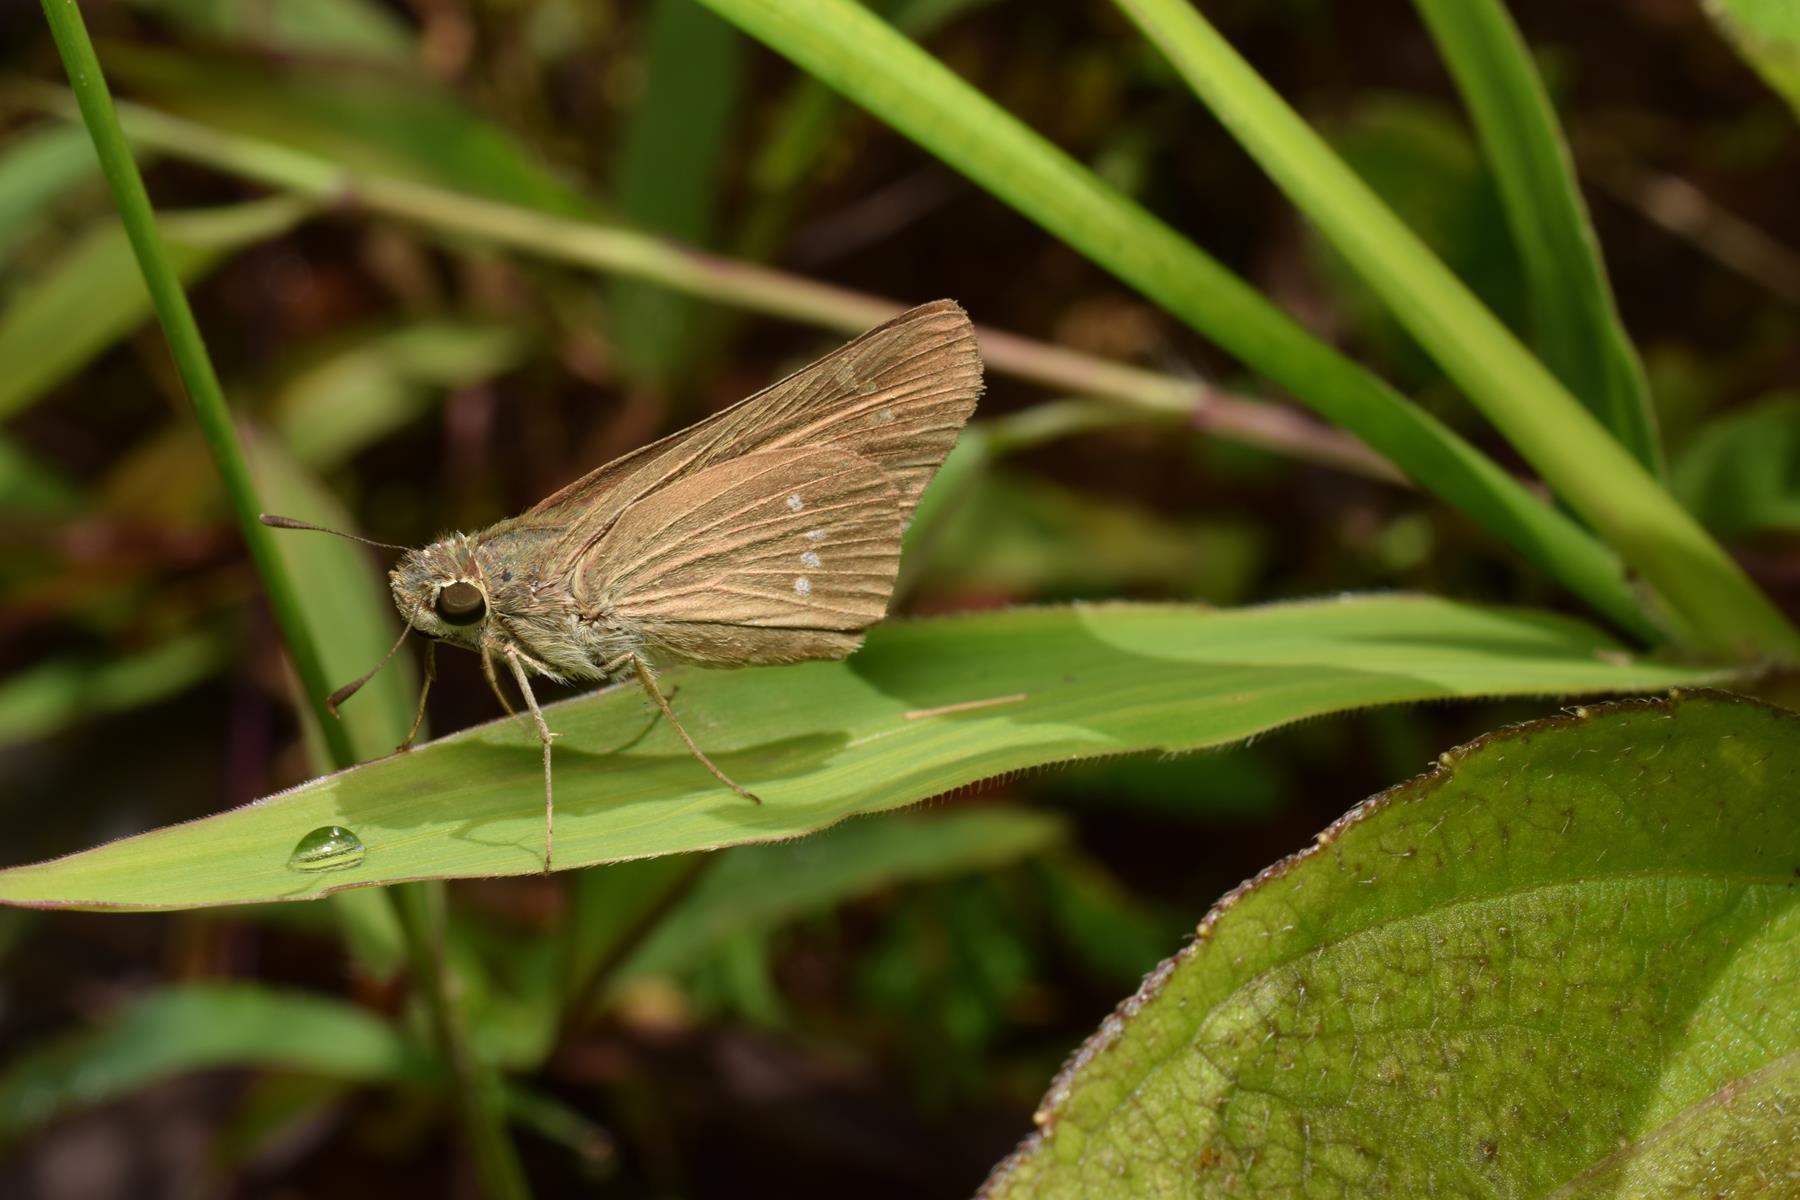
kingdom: Animalia
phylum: Arthropoda
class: Insecta
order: Lepidoptera
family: Hesperiidae
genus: Borbo
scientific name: Borbo cinnara
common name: Formosan swift
